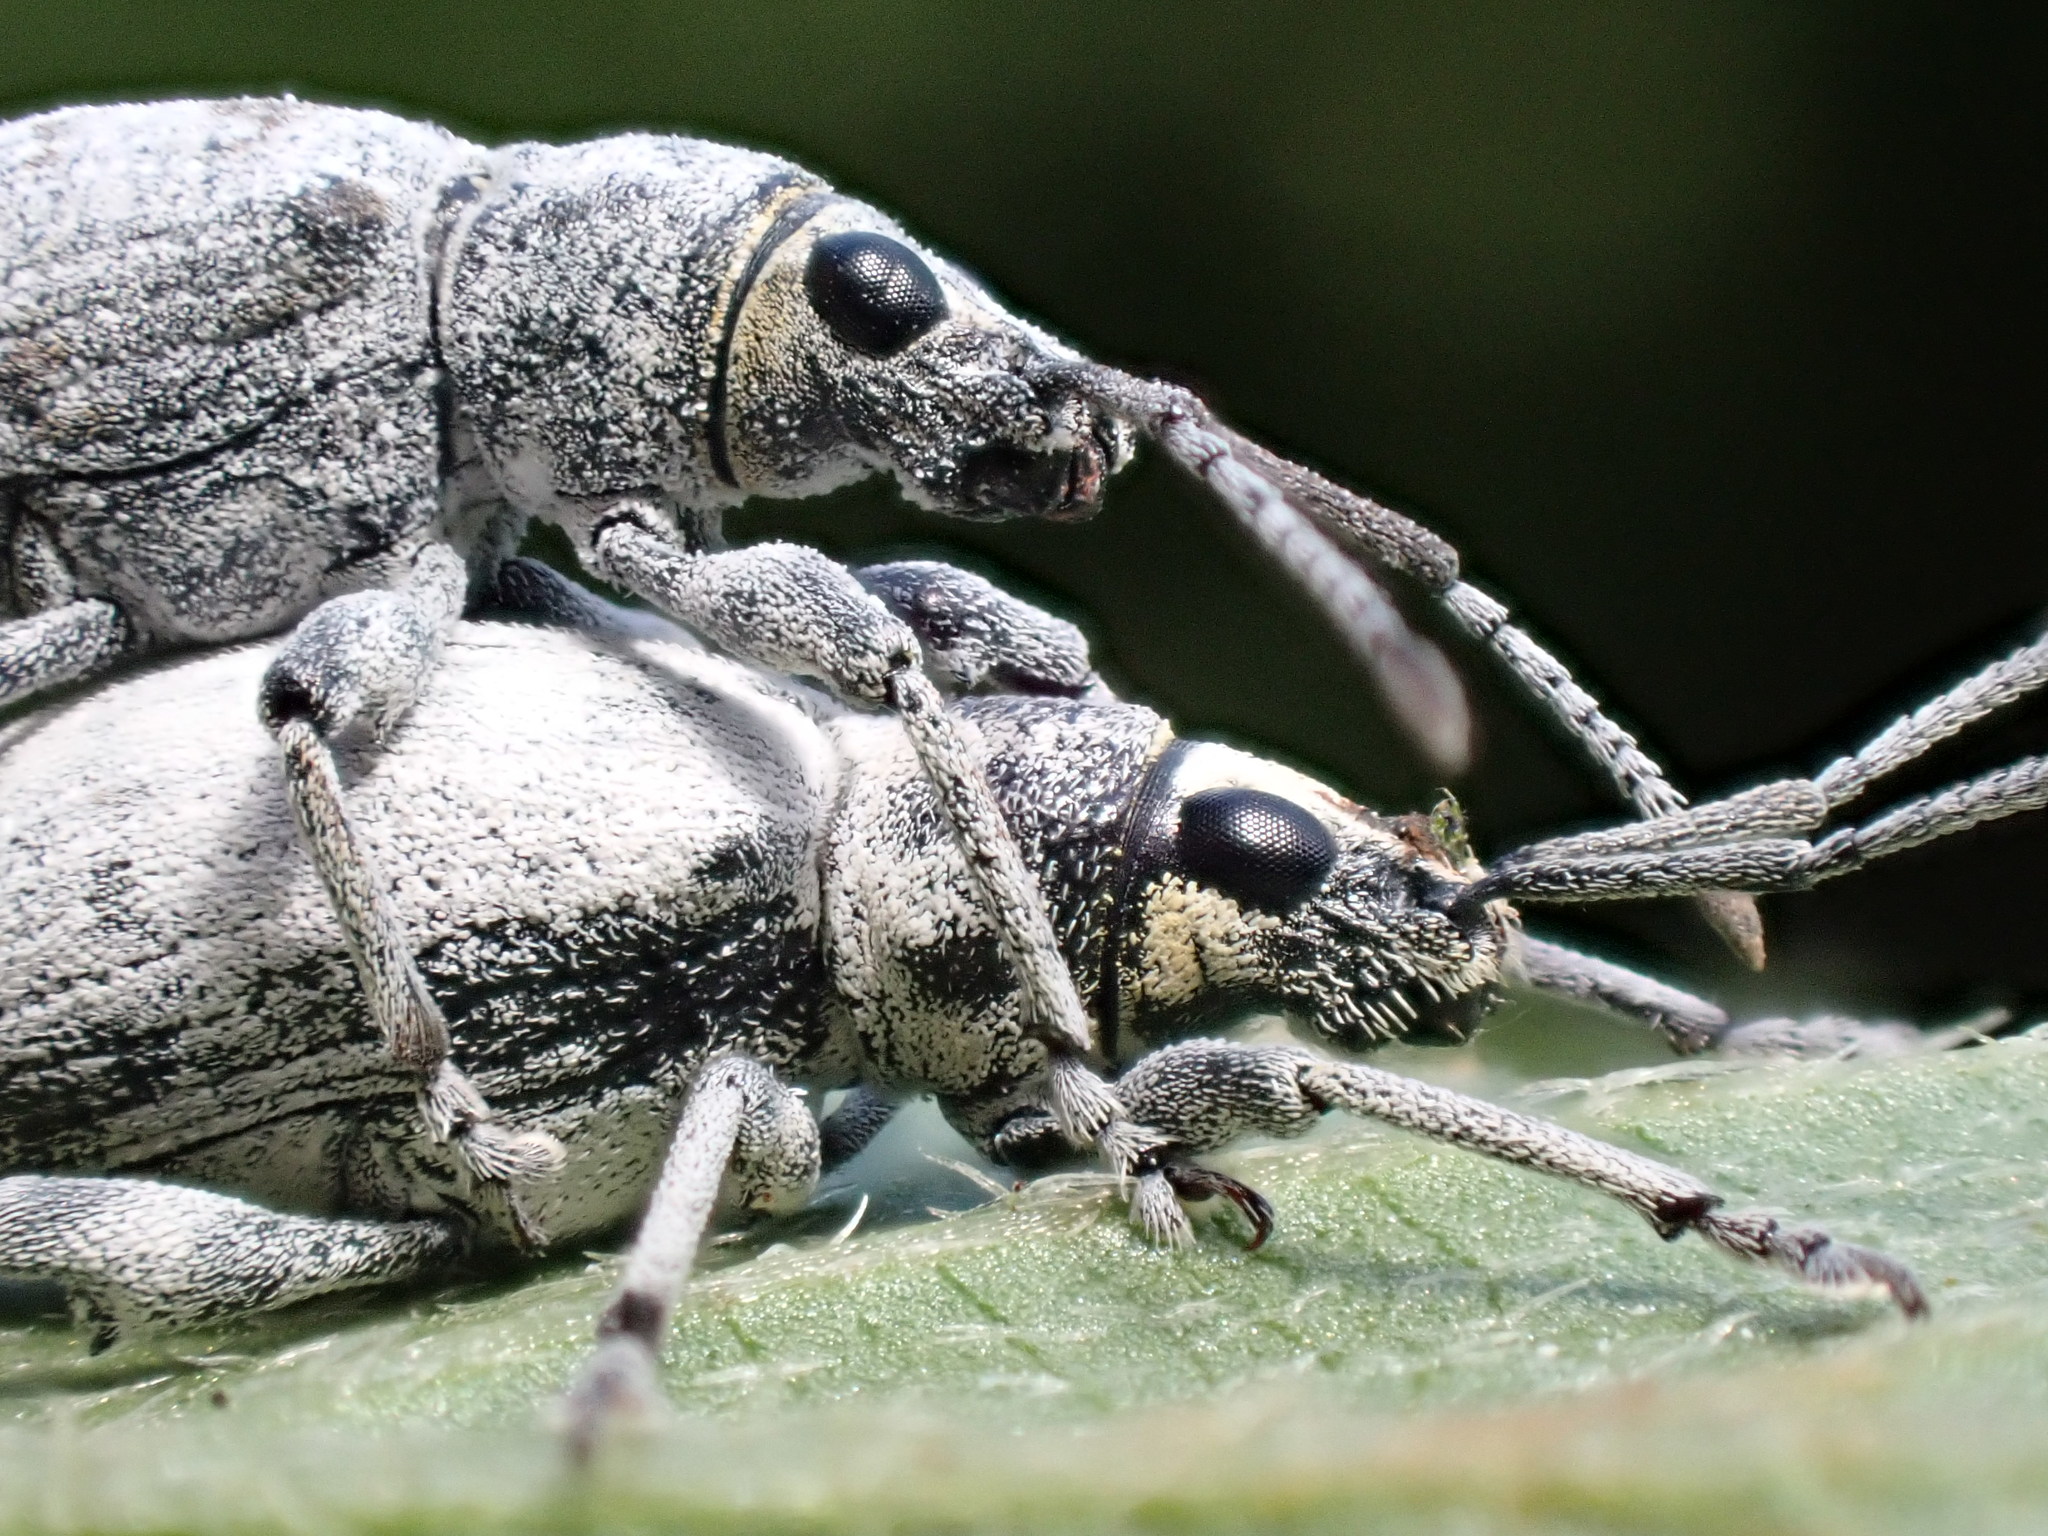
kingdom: Animalia
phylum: Arthropoda
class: Insecta
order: Coleoptera
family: Curculionidae
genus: Myllocerus
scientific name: Myllocerus undecimpustulatus
